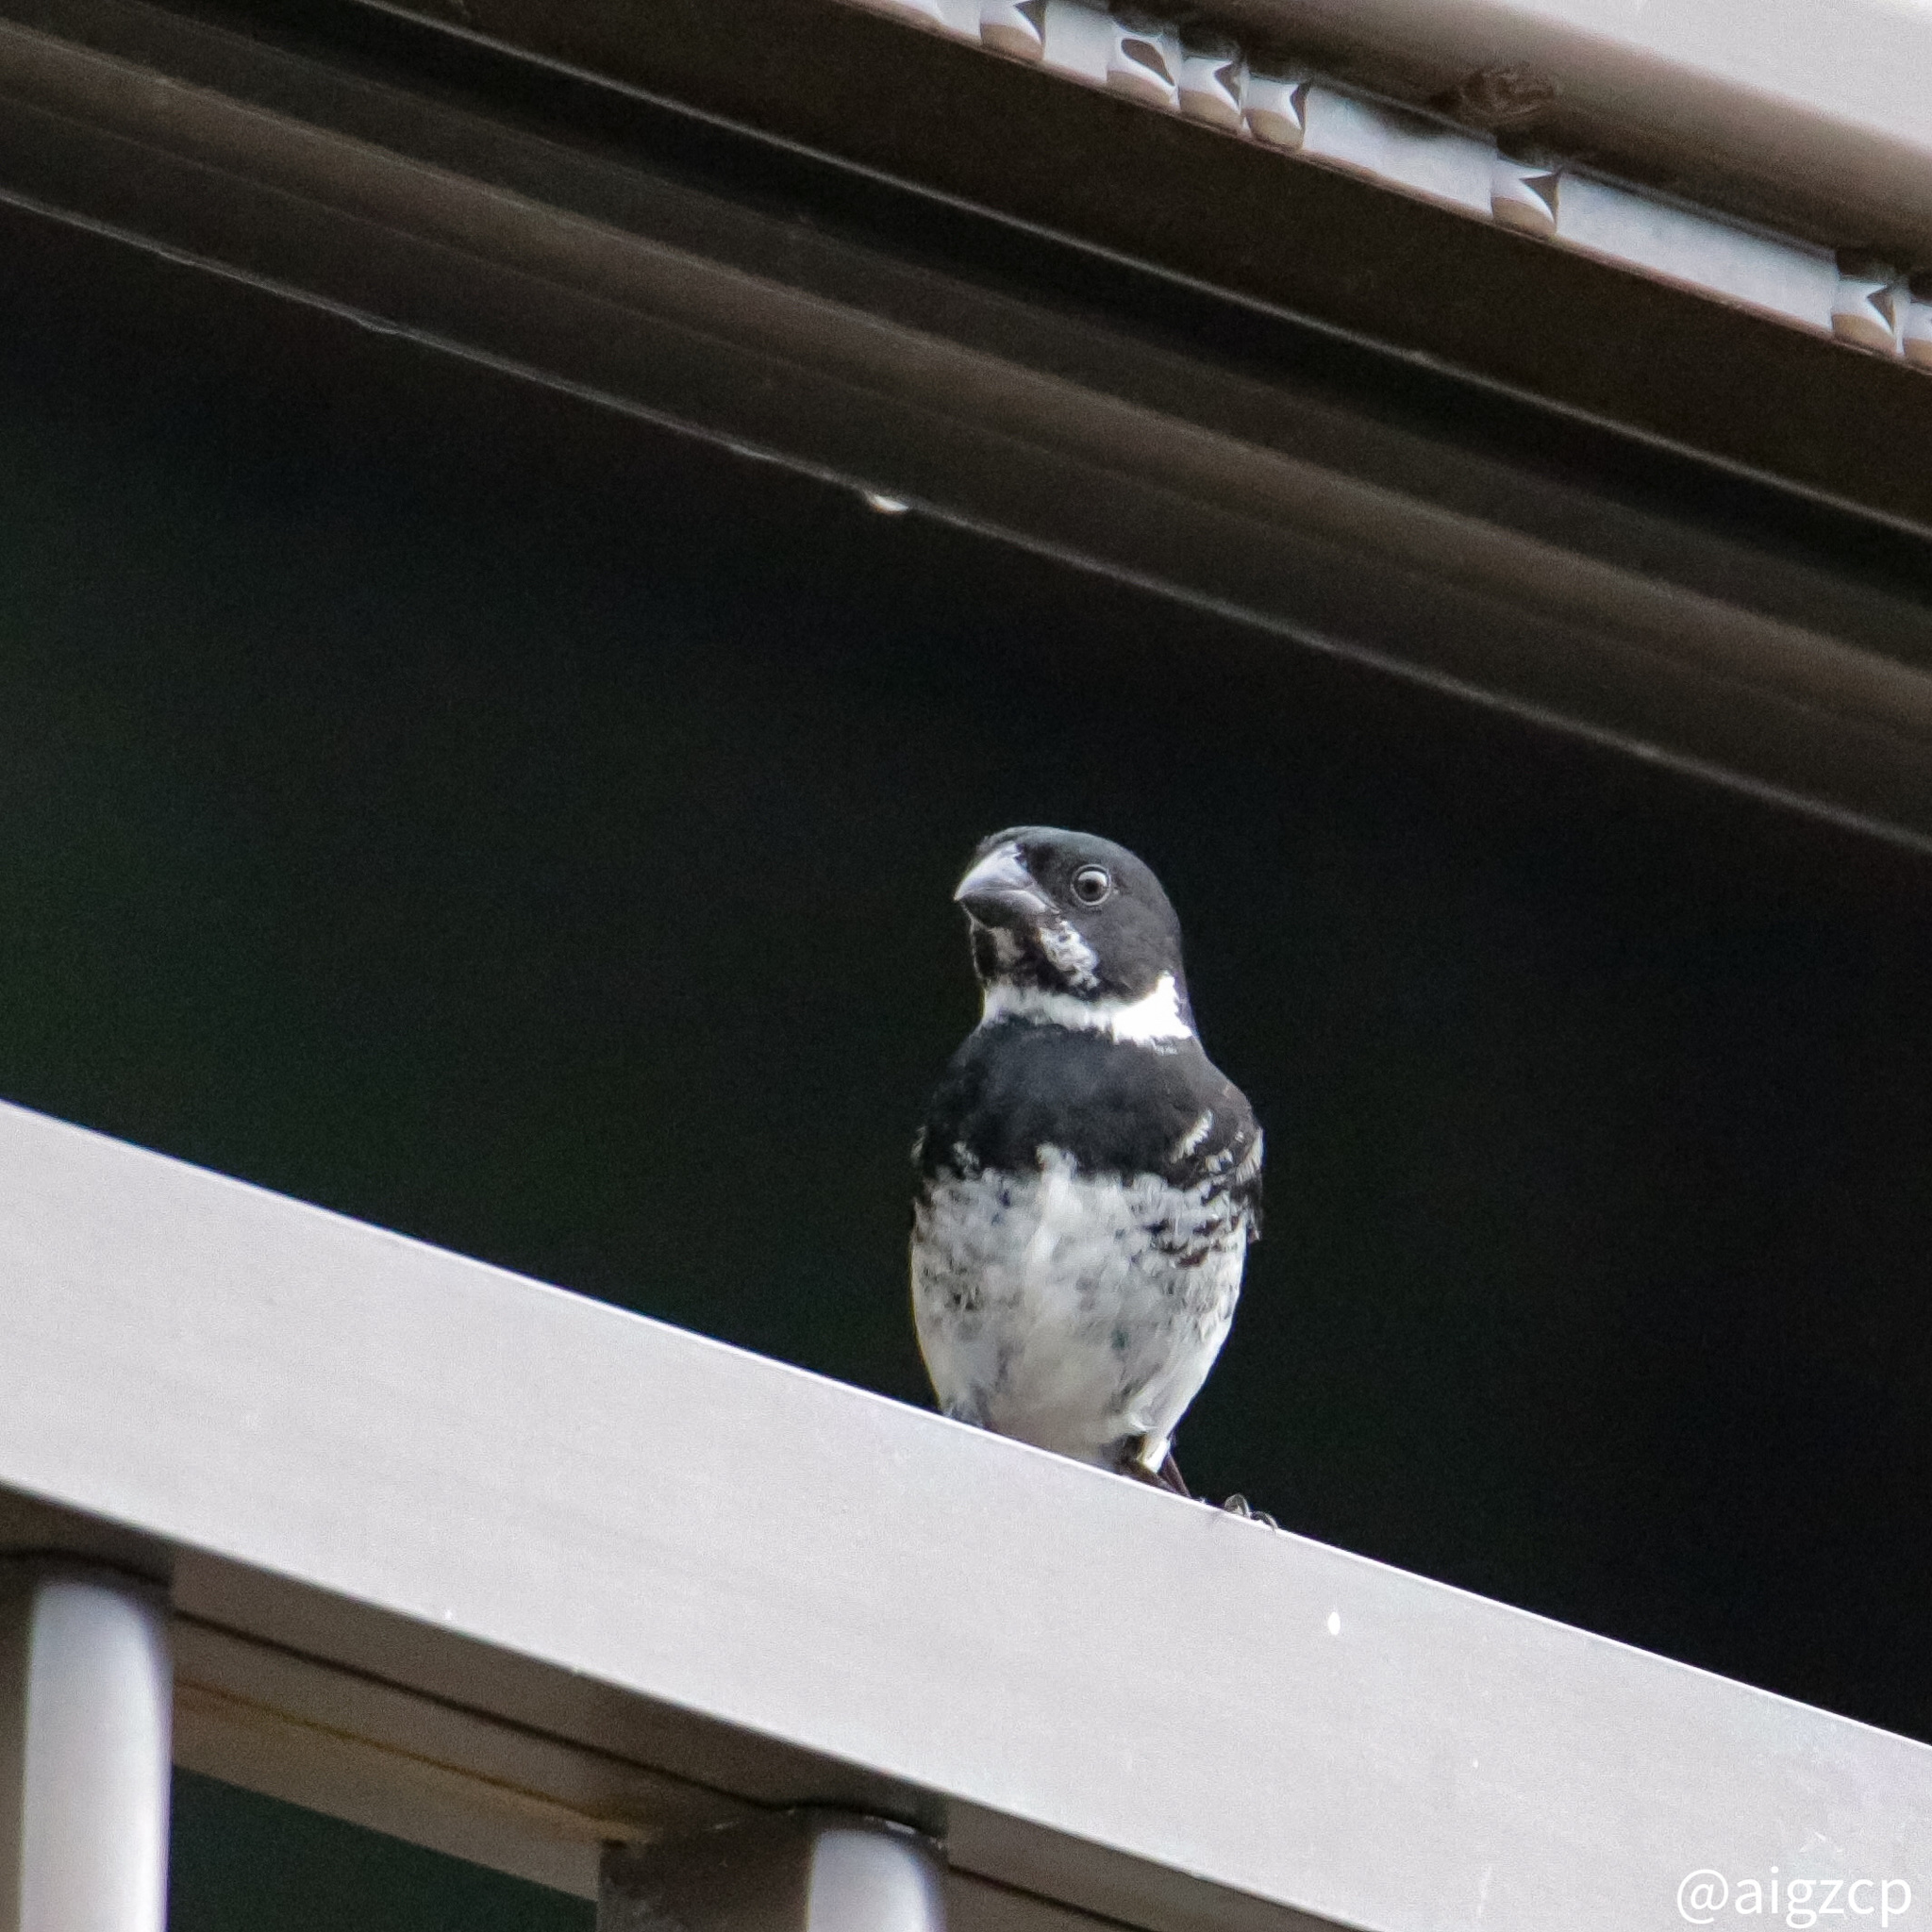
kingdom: Animalia
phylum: Chordata
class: Aves
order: Passeriformes
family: Thraupidae
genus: Sporophila
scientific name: Sporophila corvina
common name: Variable seedeater
